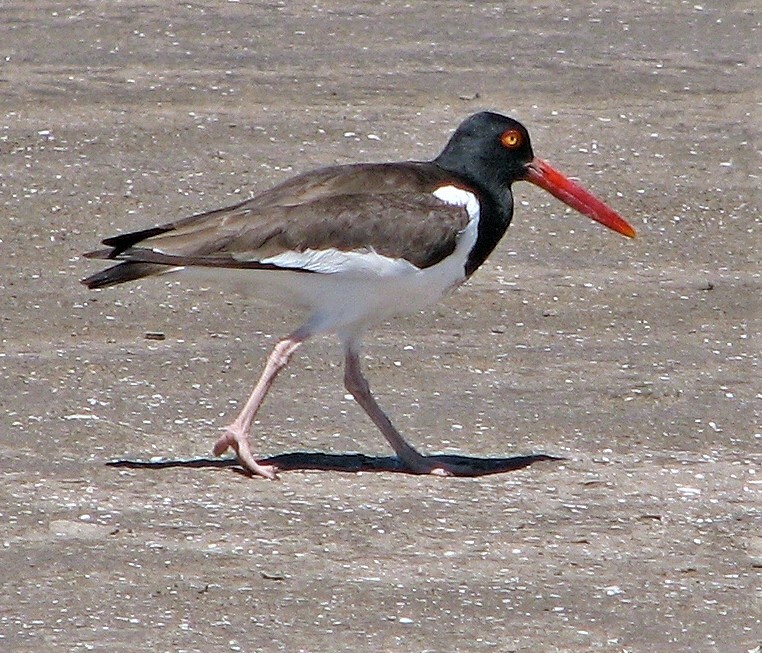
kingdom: Animalia
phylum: Chordata
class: Aves
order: Charadriiformes
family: Haematopodidae
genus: Haematopus
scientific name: Haematopus palliatus
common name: American oystercatcher
